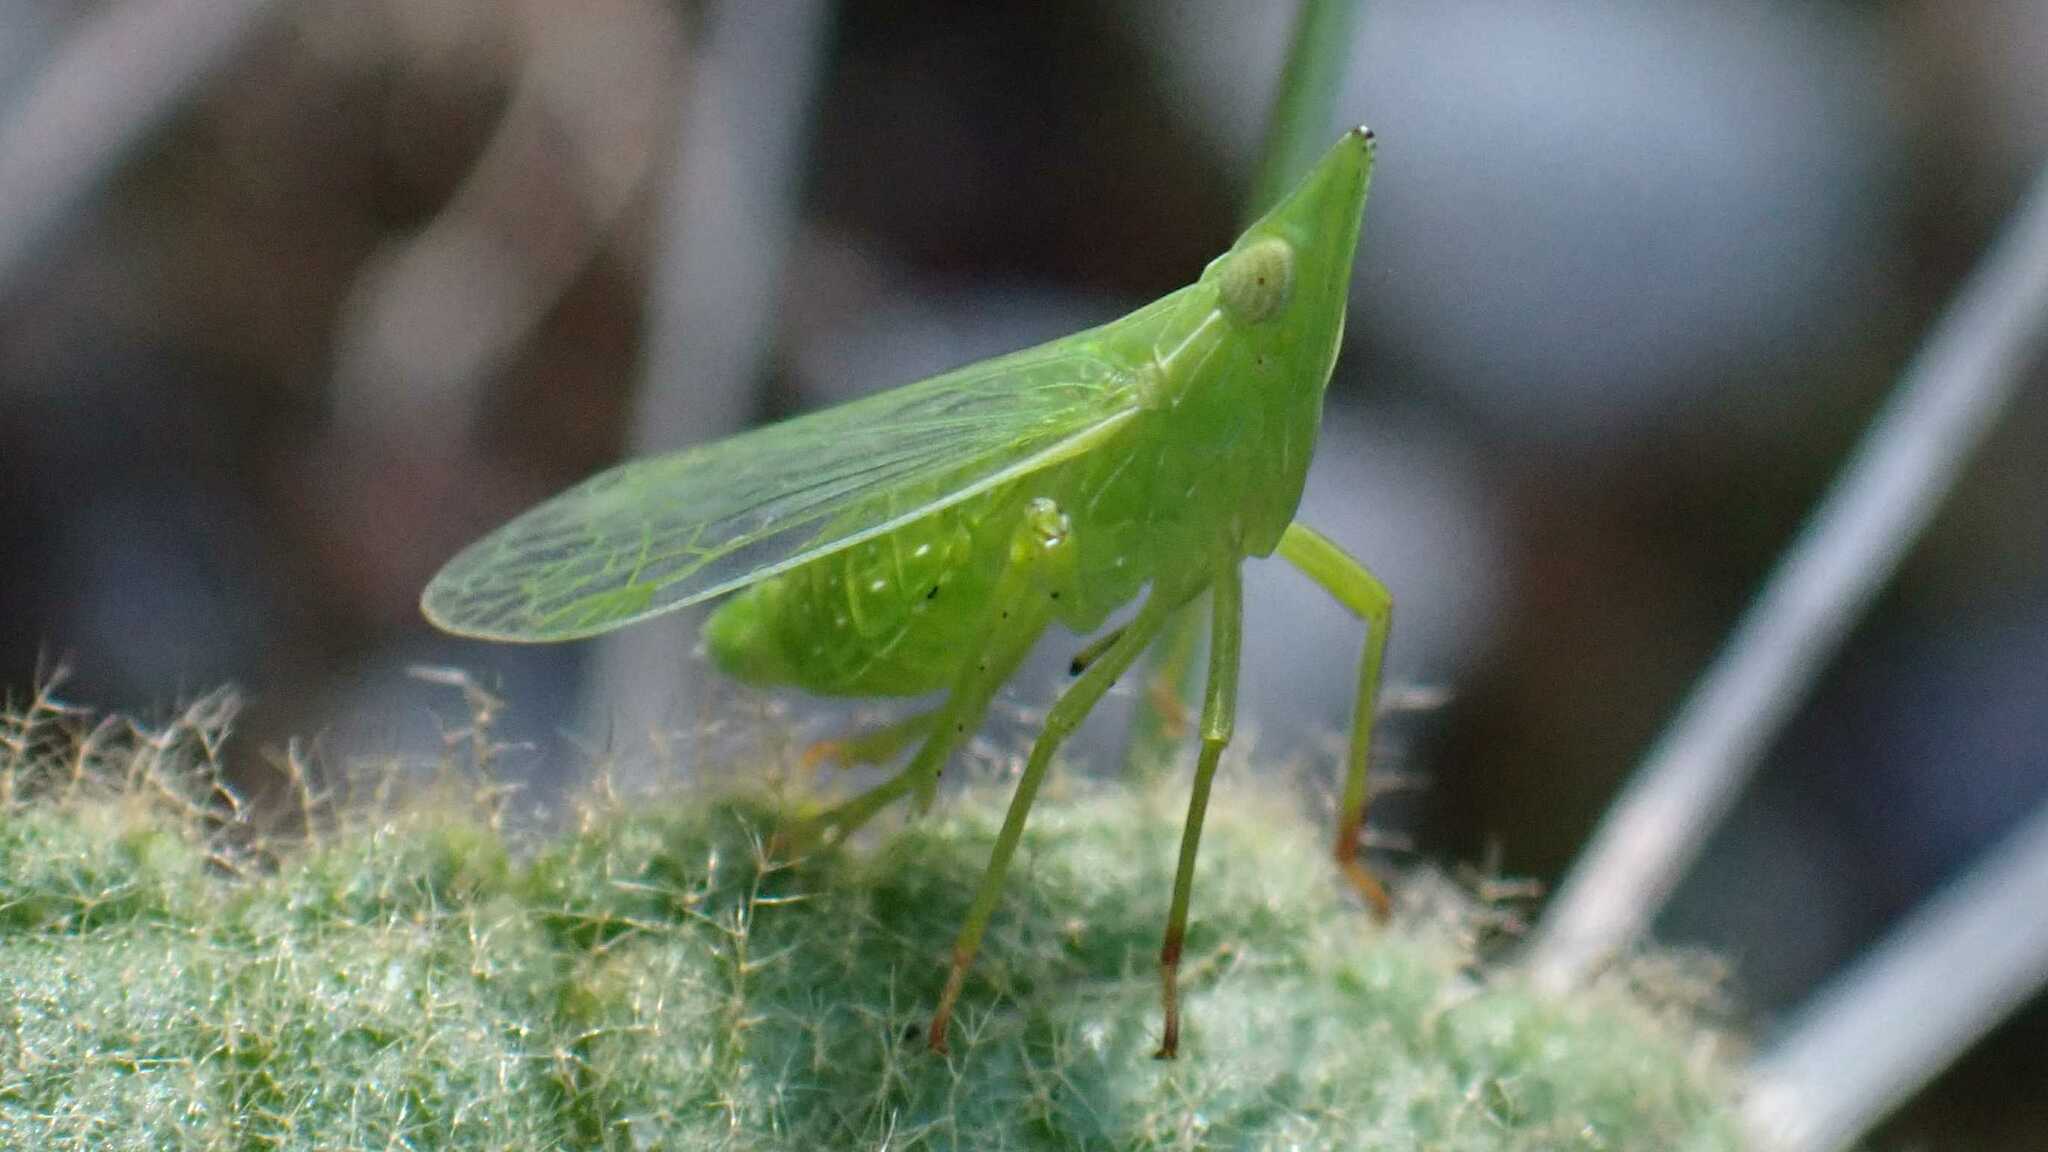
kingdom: Animalia
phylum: Arthropoda
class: Insecta
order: Hemiptera
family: Dictyopharidae
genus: Dictyophara
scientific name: Dictyophara europaea
